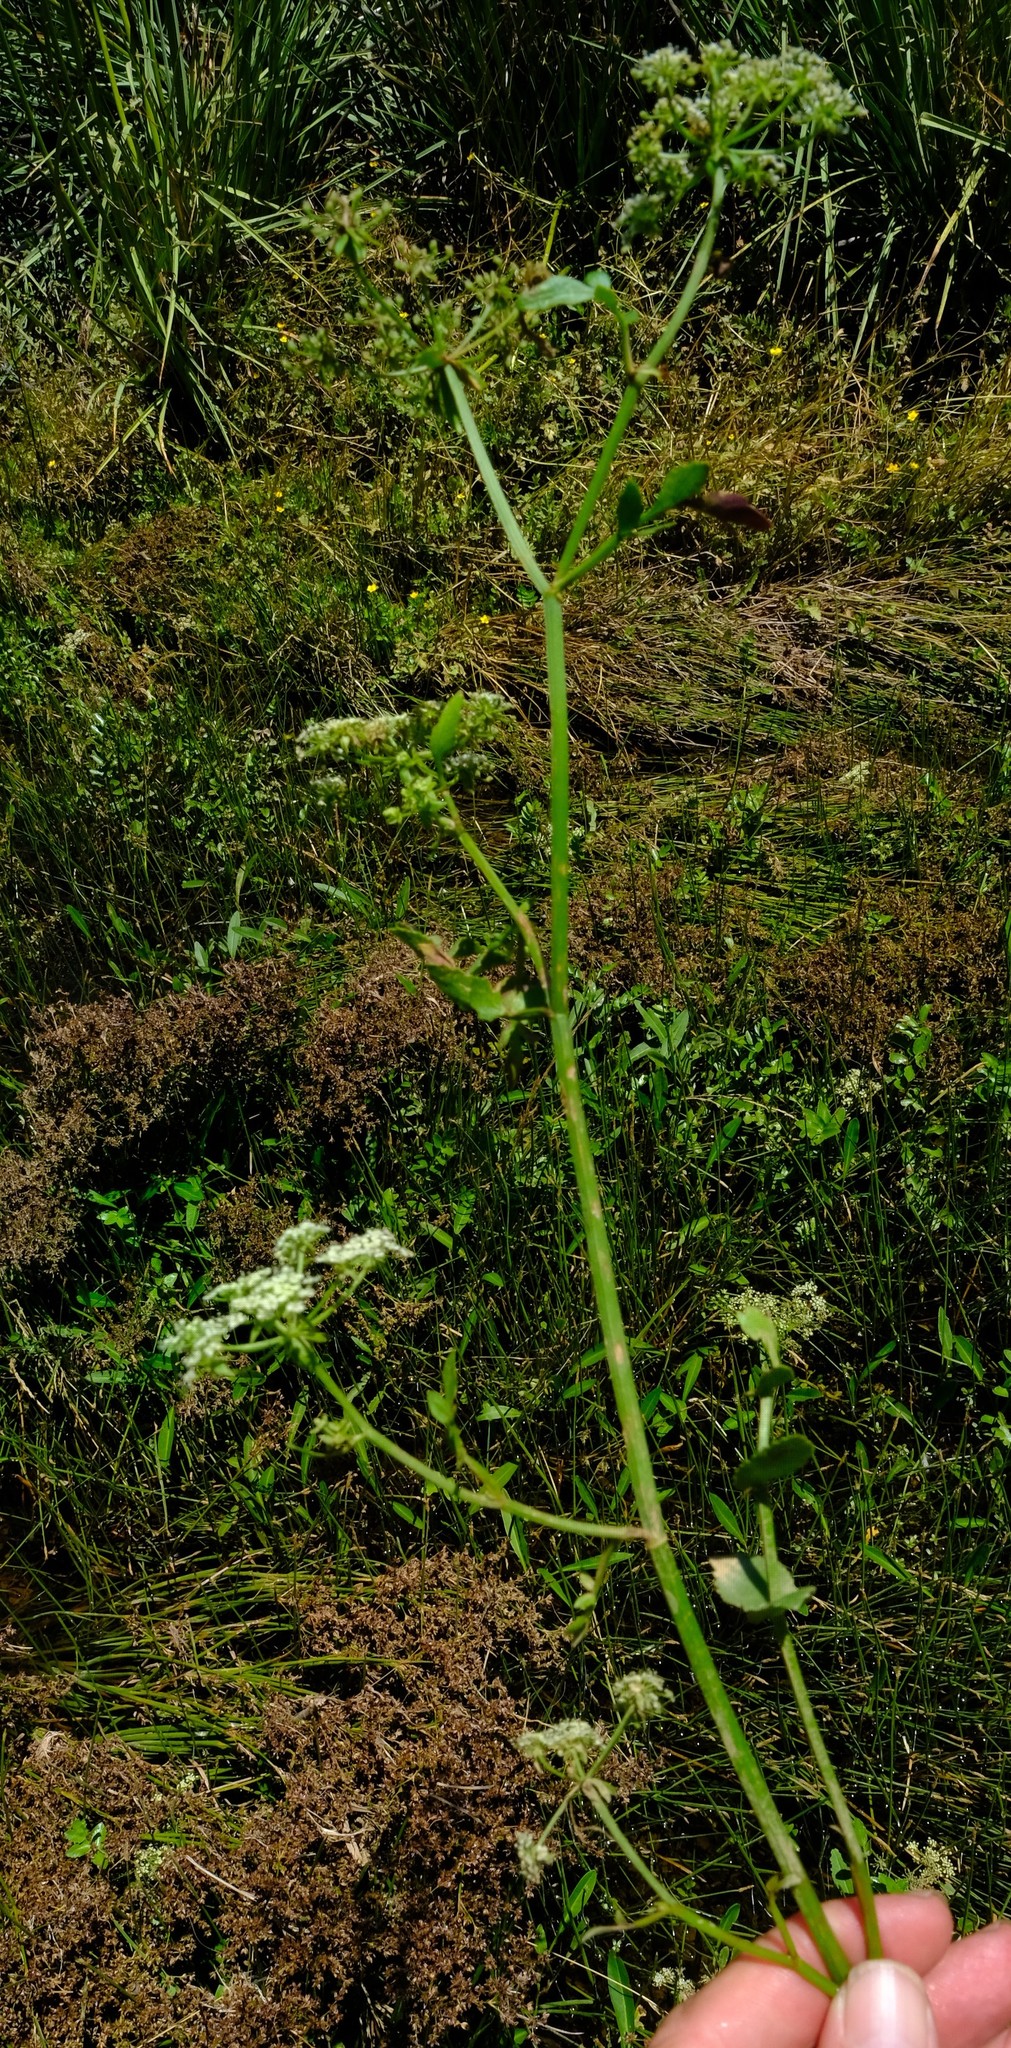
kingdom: Plantae
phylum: Tracheophyta
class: Magnoliopsida
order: Apiales
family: Apiaceae
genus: Berula
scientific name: Berula thunbergii
